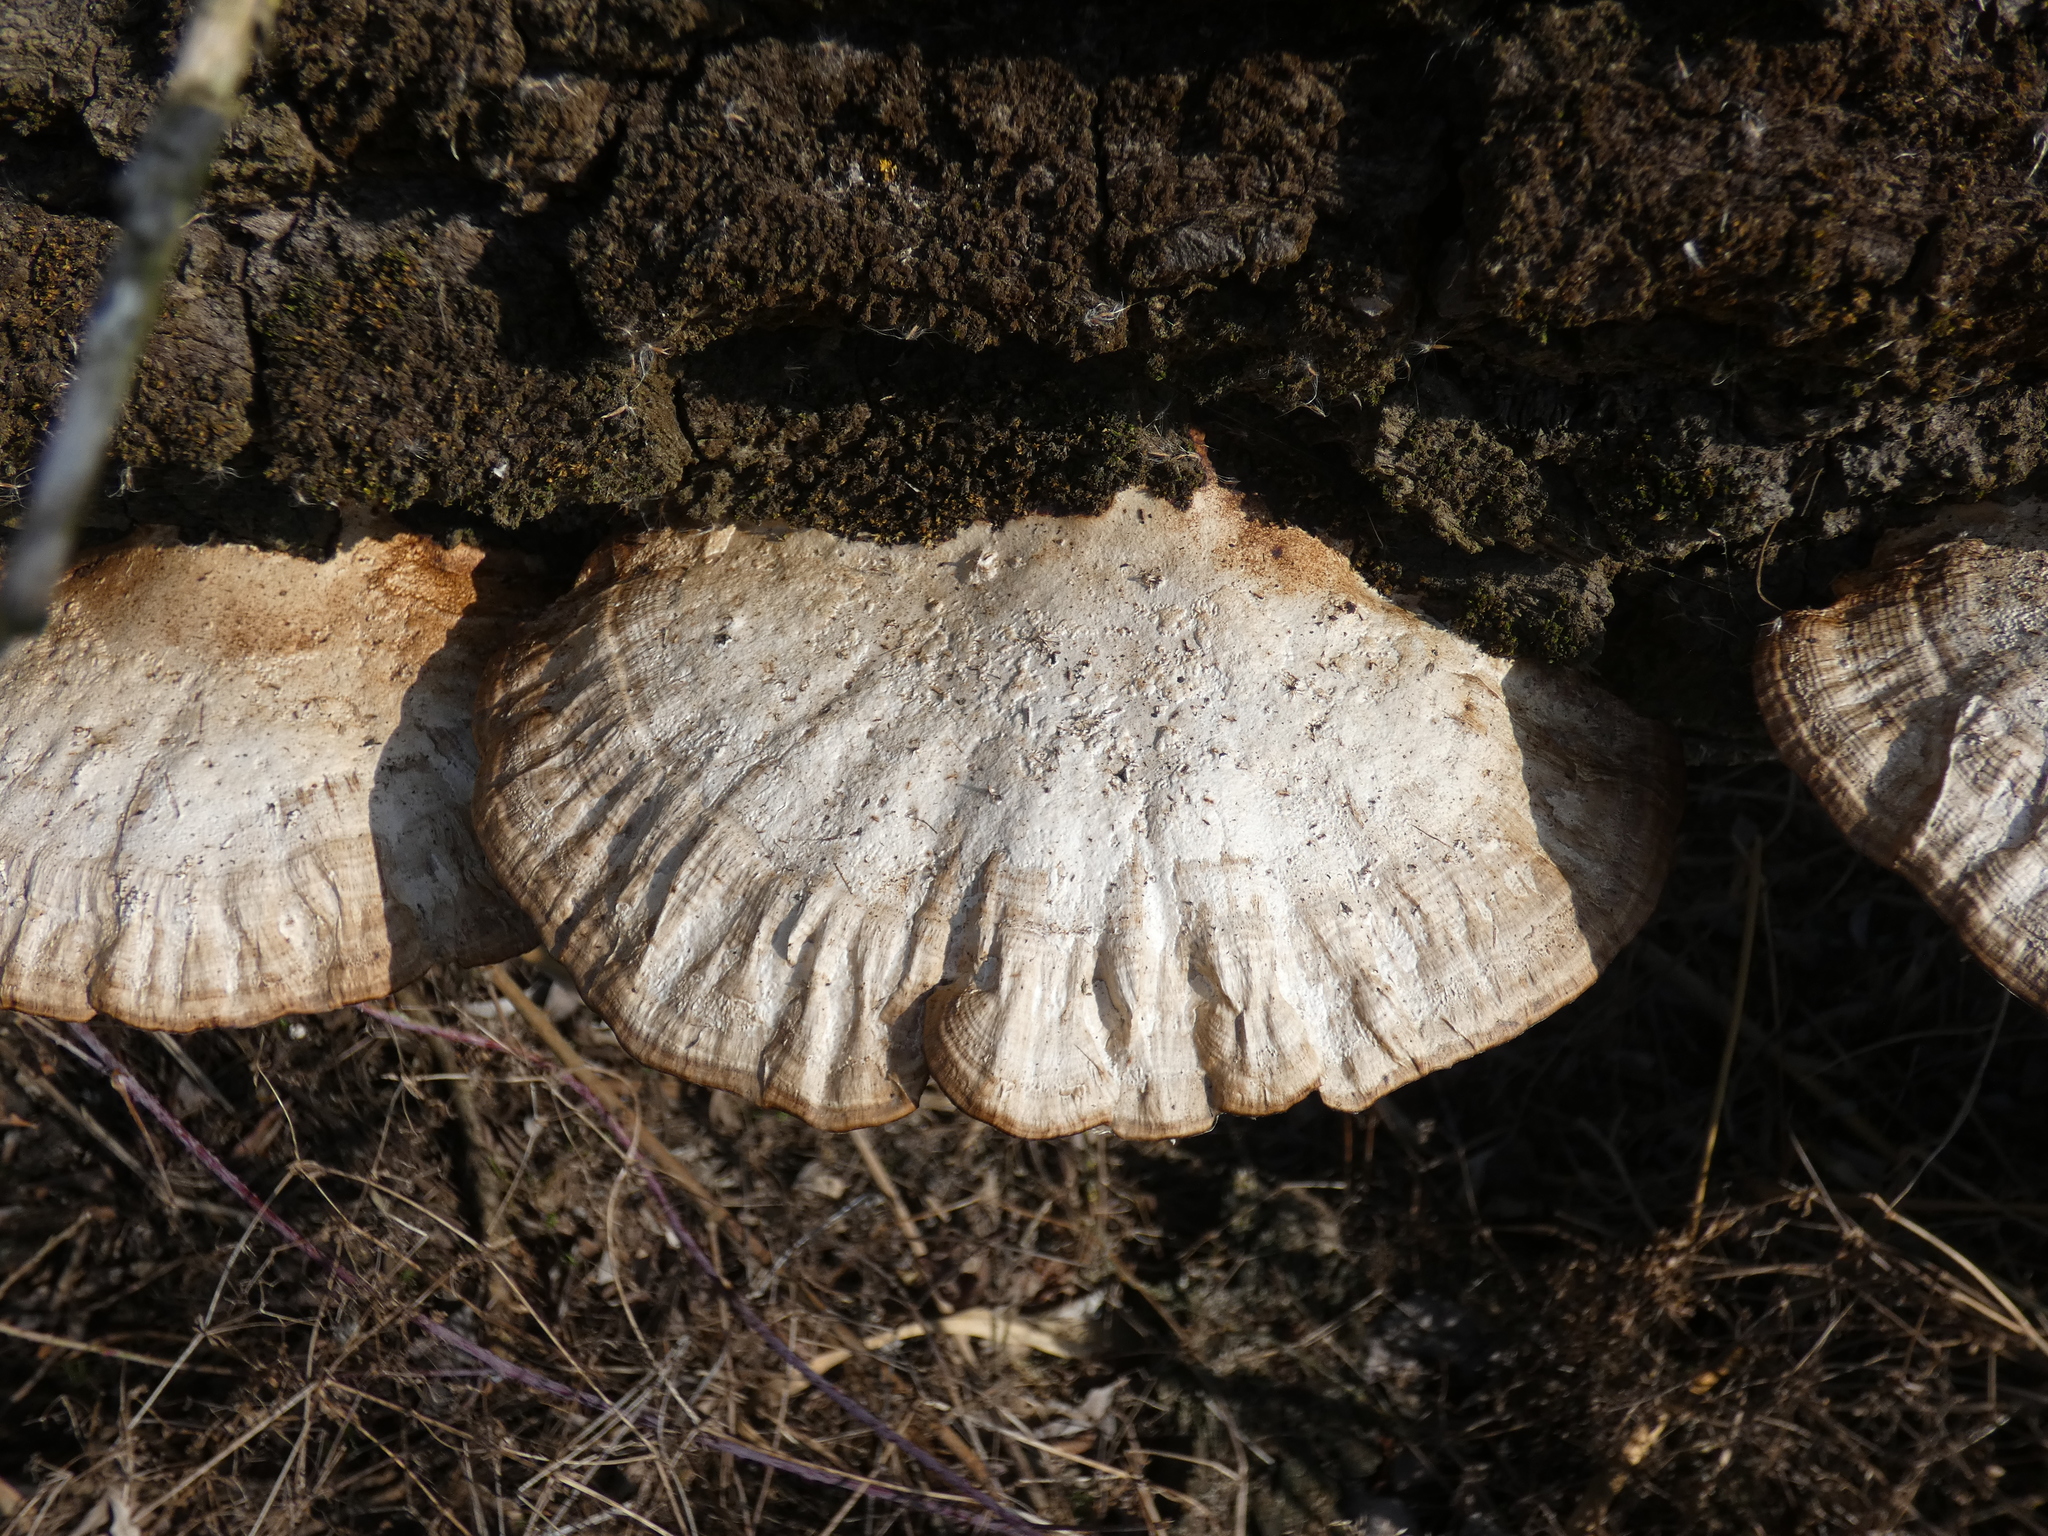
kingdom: Fungi
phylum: Basidiomycota
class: Agaricomycetes
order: Polyporales
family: Polyporaceae
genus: Daedaleopsis
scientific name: Daedaleopsis confragosa
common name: Blushing bracket
